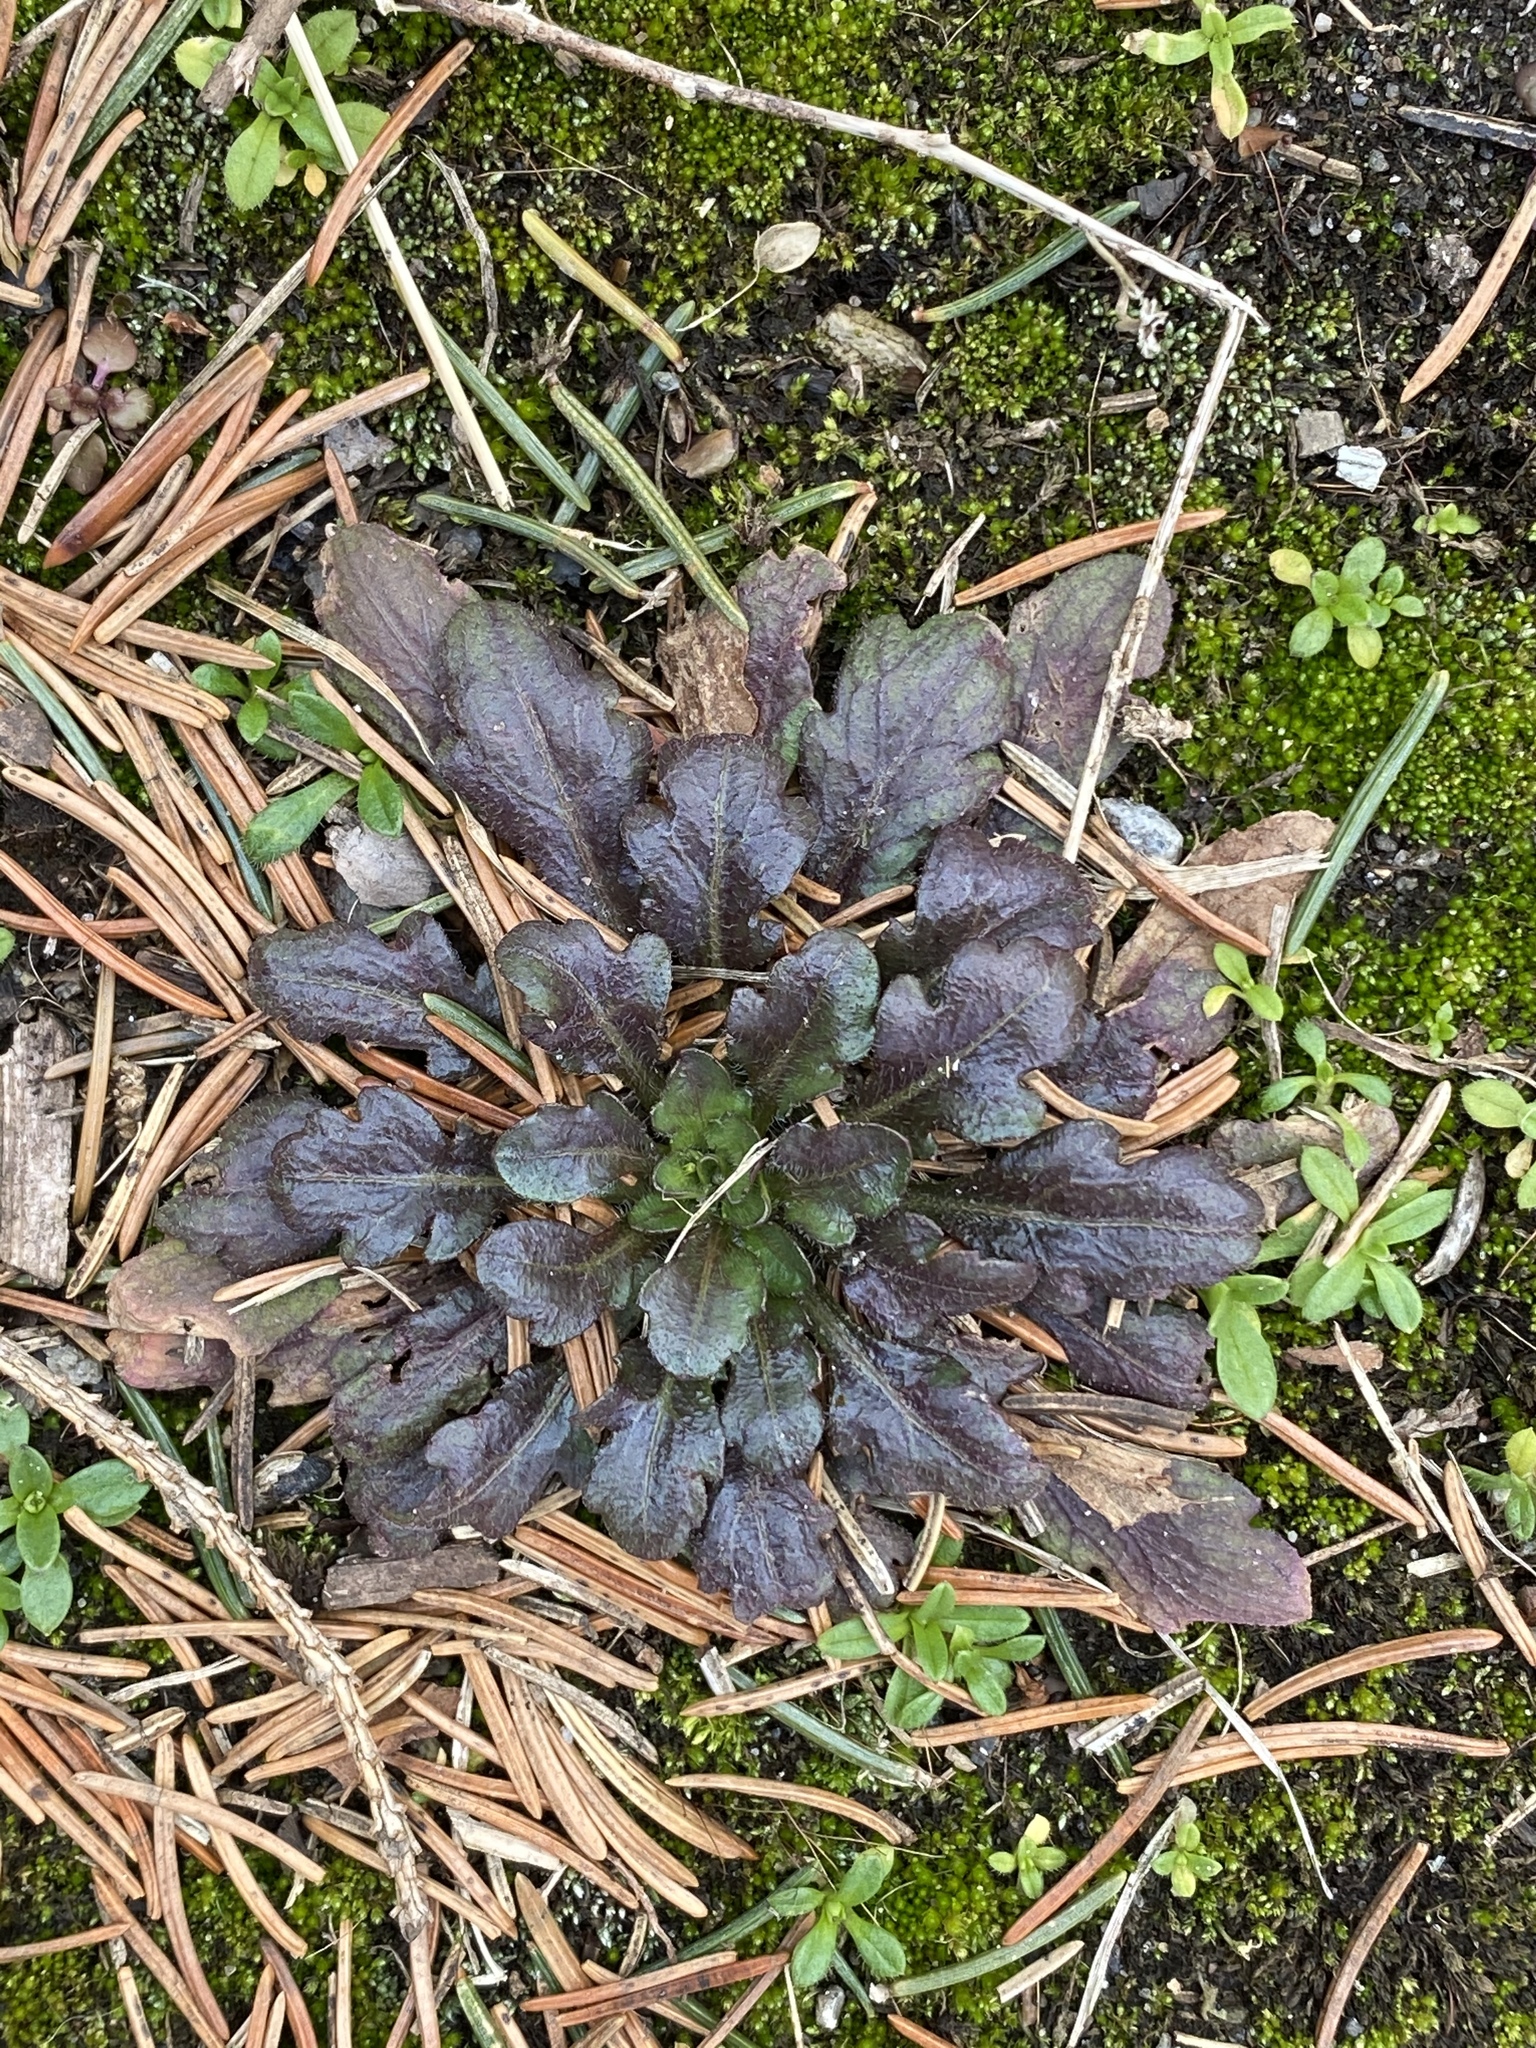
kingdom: Plantae
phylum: Tracheophyta
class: Magnoliopsida
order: Asterales
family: Asteraceae
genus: Erigeron
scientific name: Erigeron canadensis
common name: Canadian fleabane
